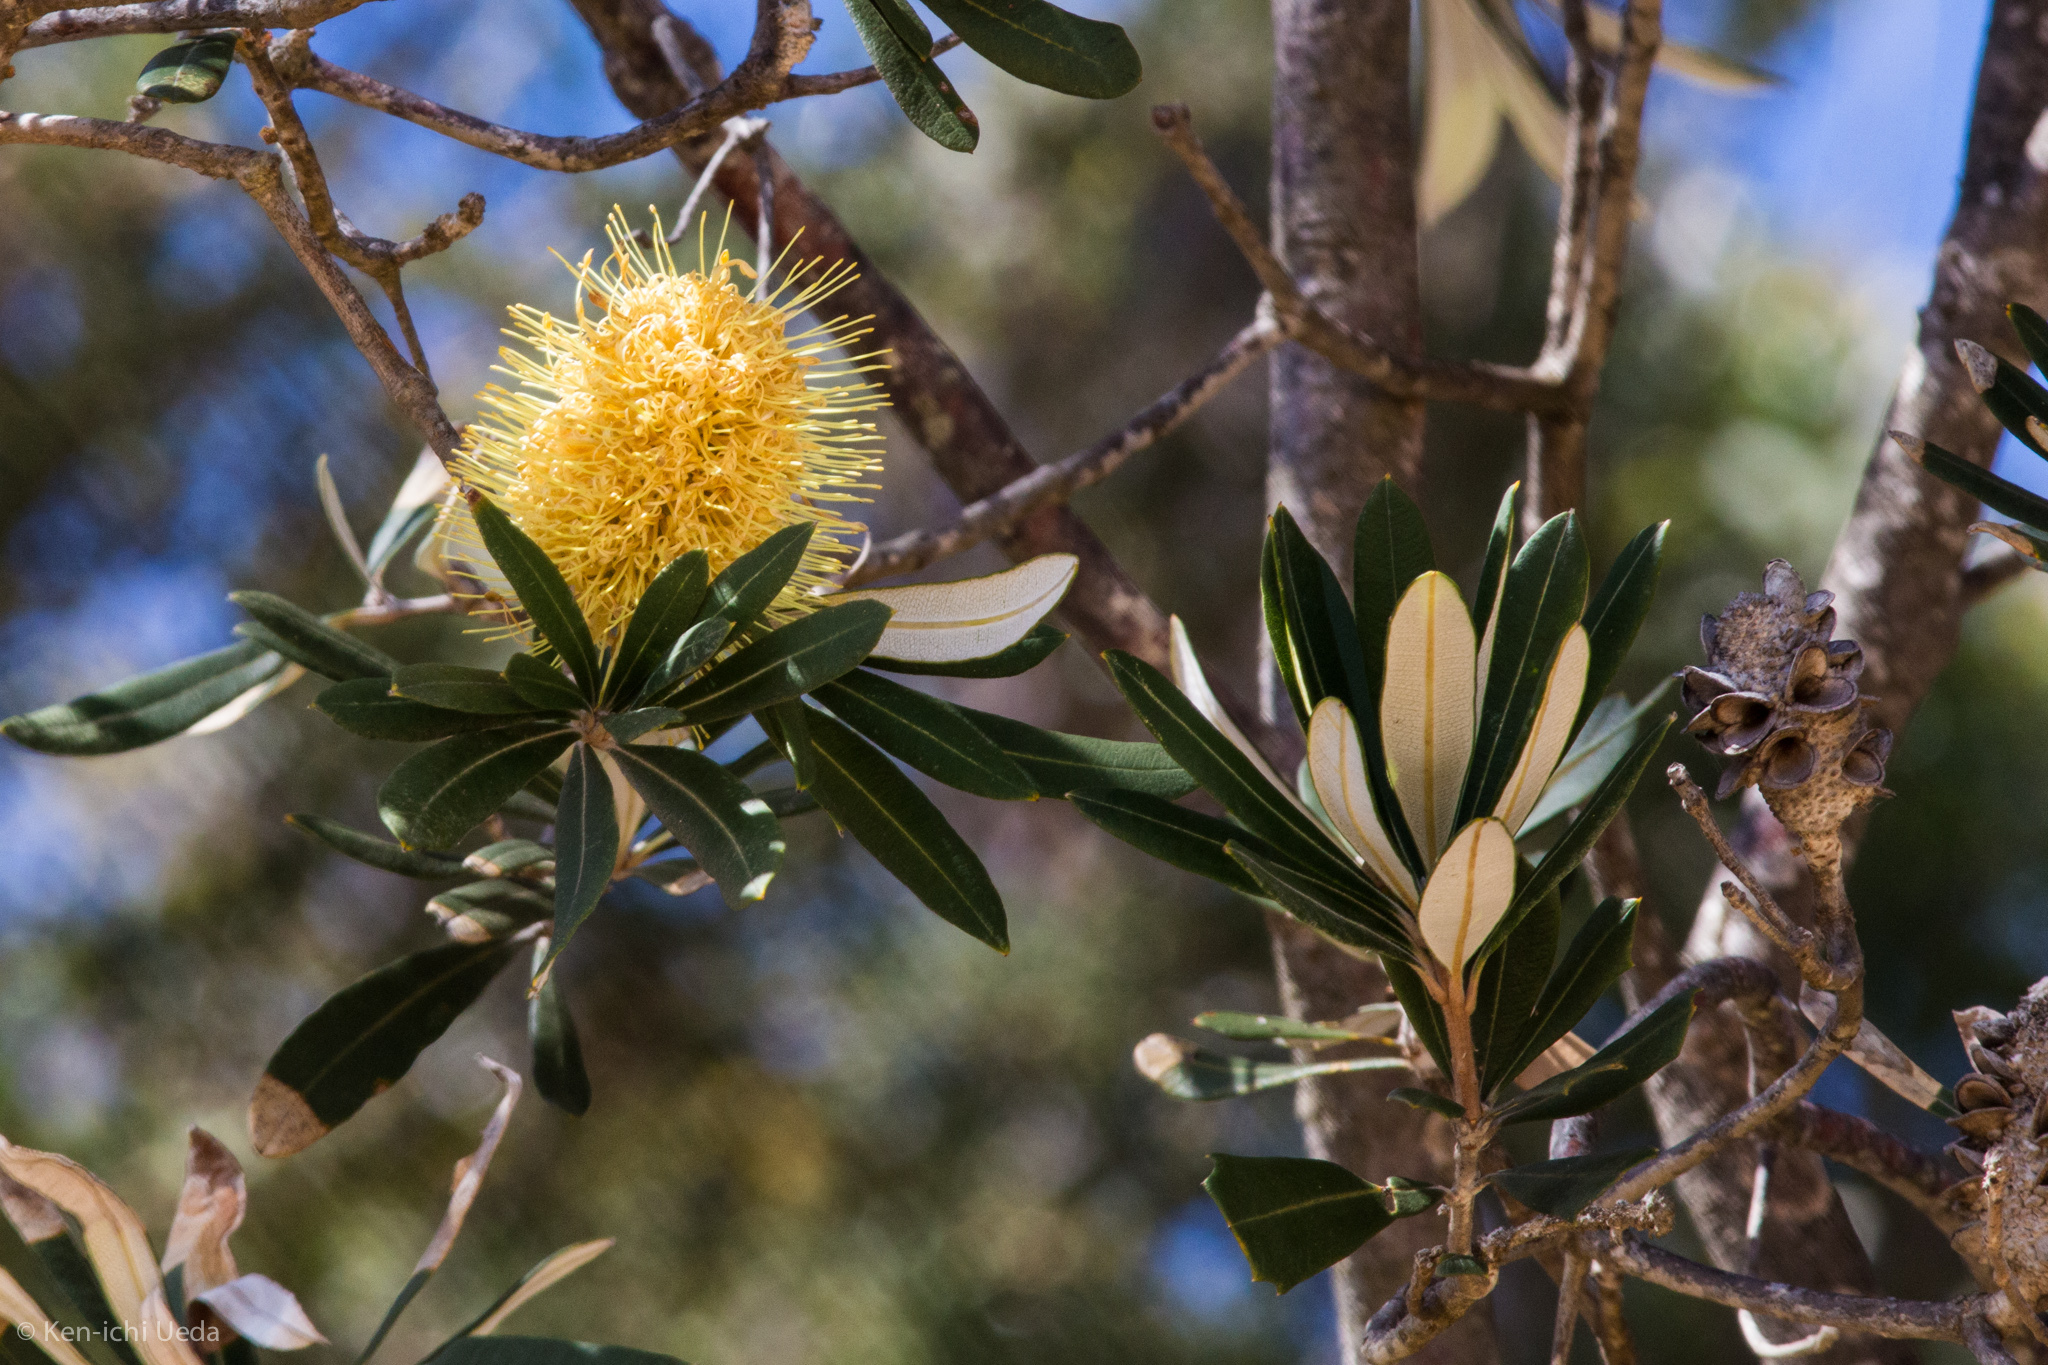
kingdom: Plantae
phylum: Tracheophyta
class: Magnoliopsida
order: Proteales
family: Proteaceae
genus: Banksia
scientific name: Banksia integrifolia
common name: White-honeysuckle
